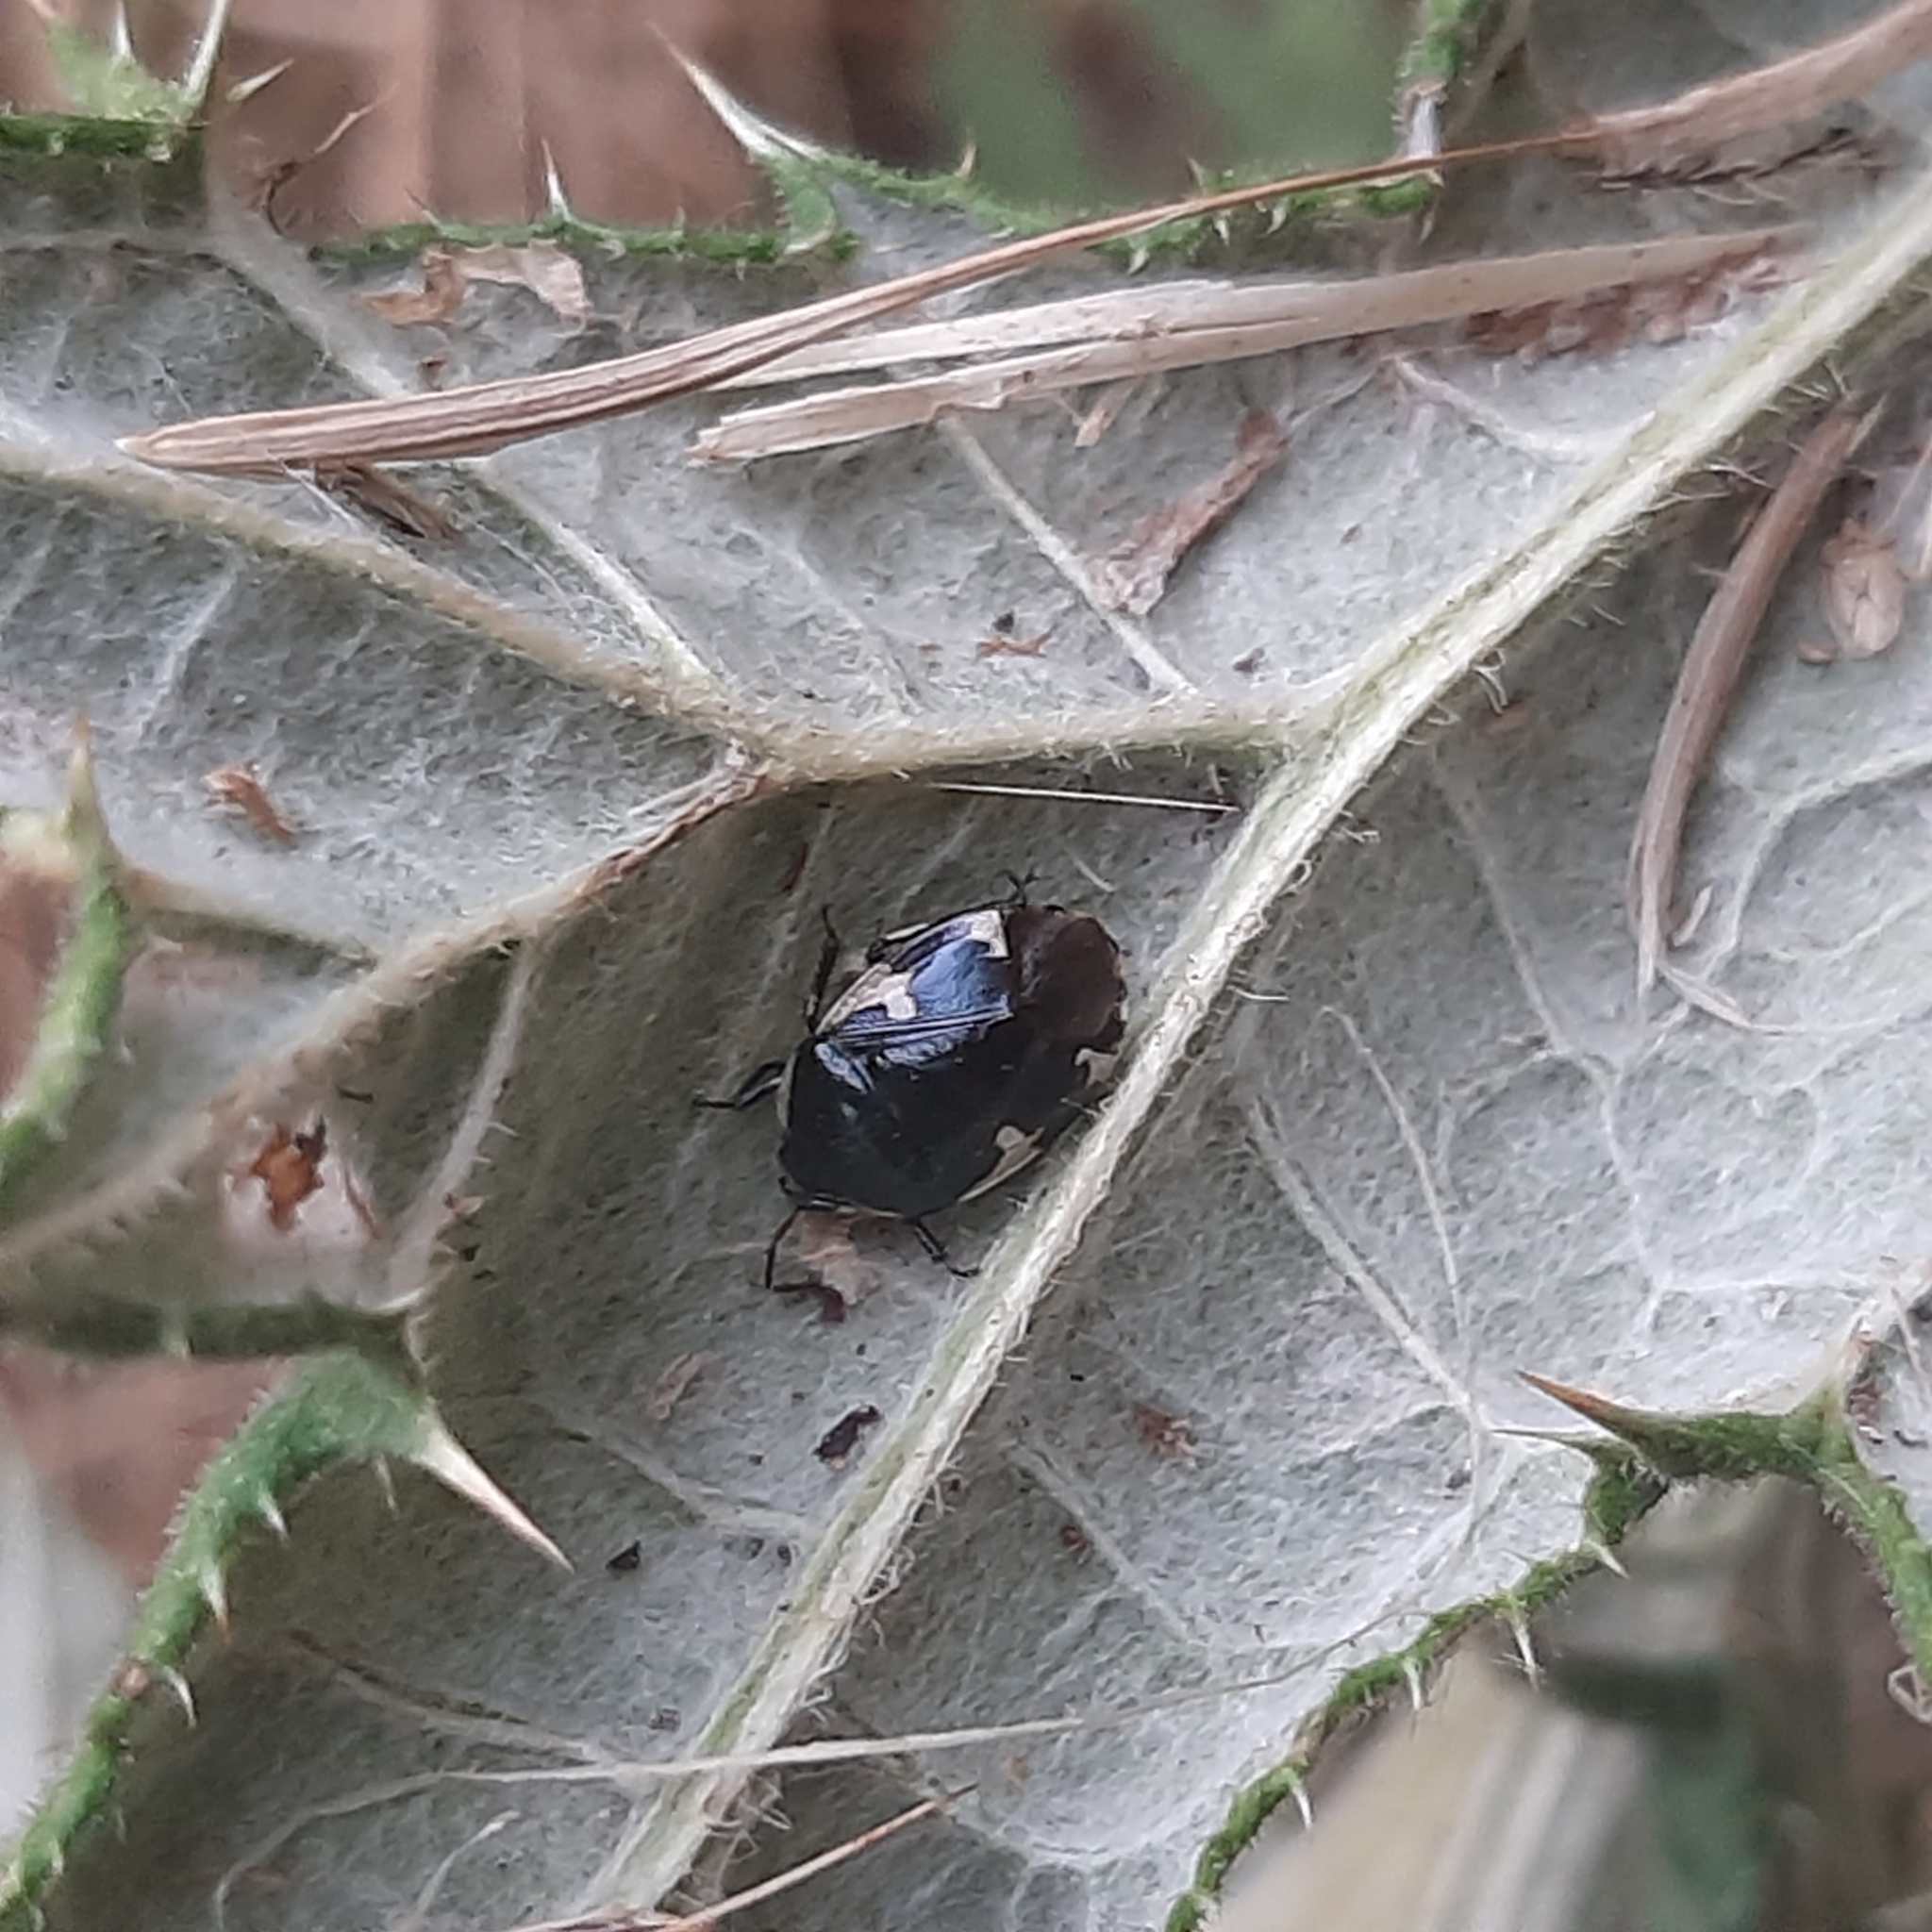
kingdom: Animalia
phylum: Arthropoda
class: Insecta
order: Hemiptera
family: Cydnidae
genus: Tritomegas
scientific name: Tritomegas sexmaculatus
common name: Rambur's pied shieldbug
